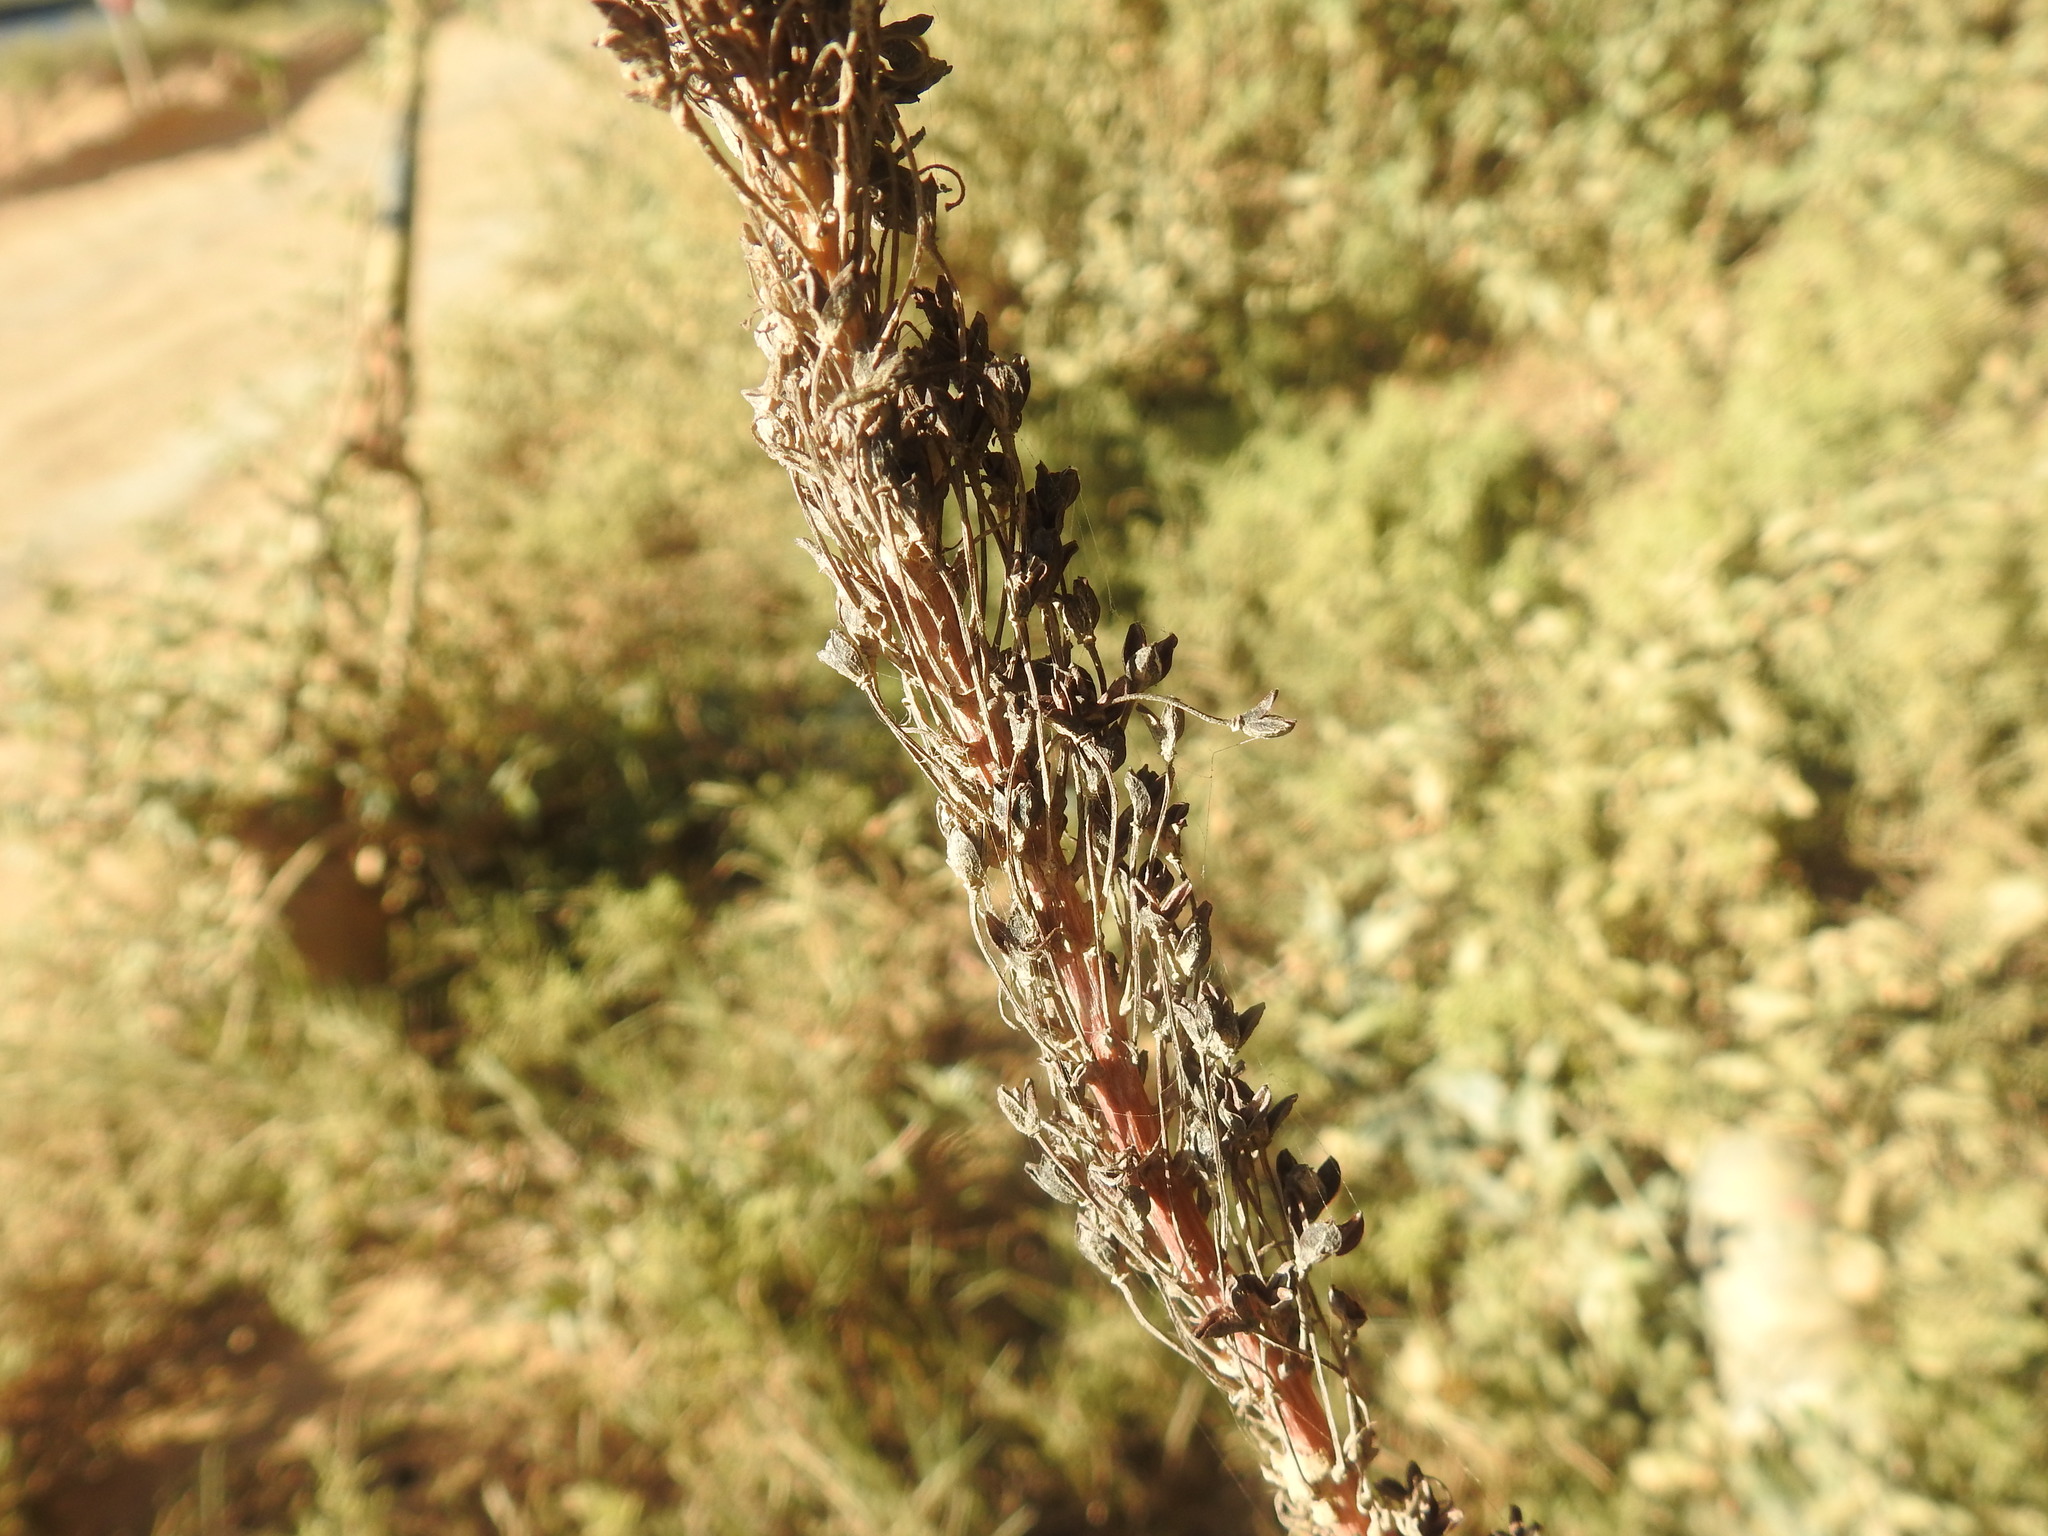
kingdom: Plantae
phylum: Tracheophyta
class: Liliopsida
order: Asparagales
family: Asphodelaceae
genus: Bulbine
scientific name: Bulbine latifolia
